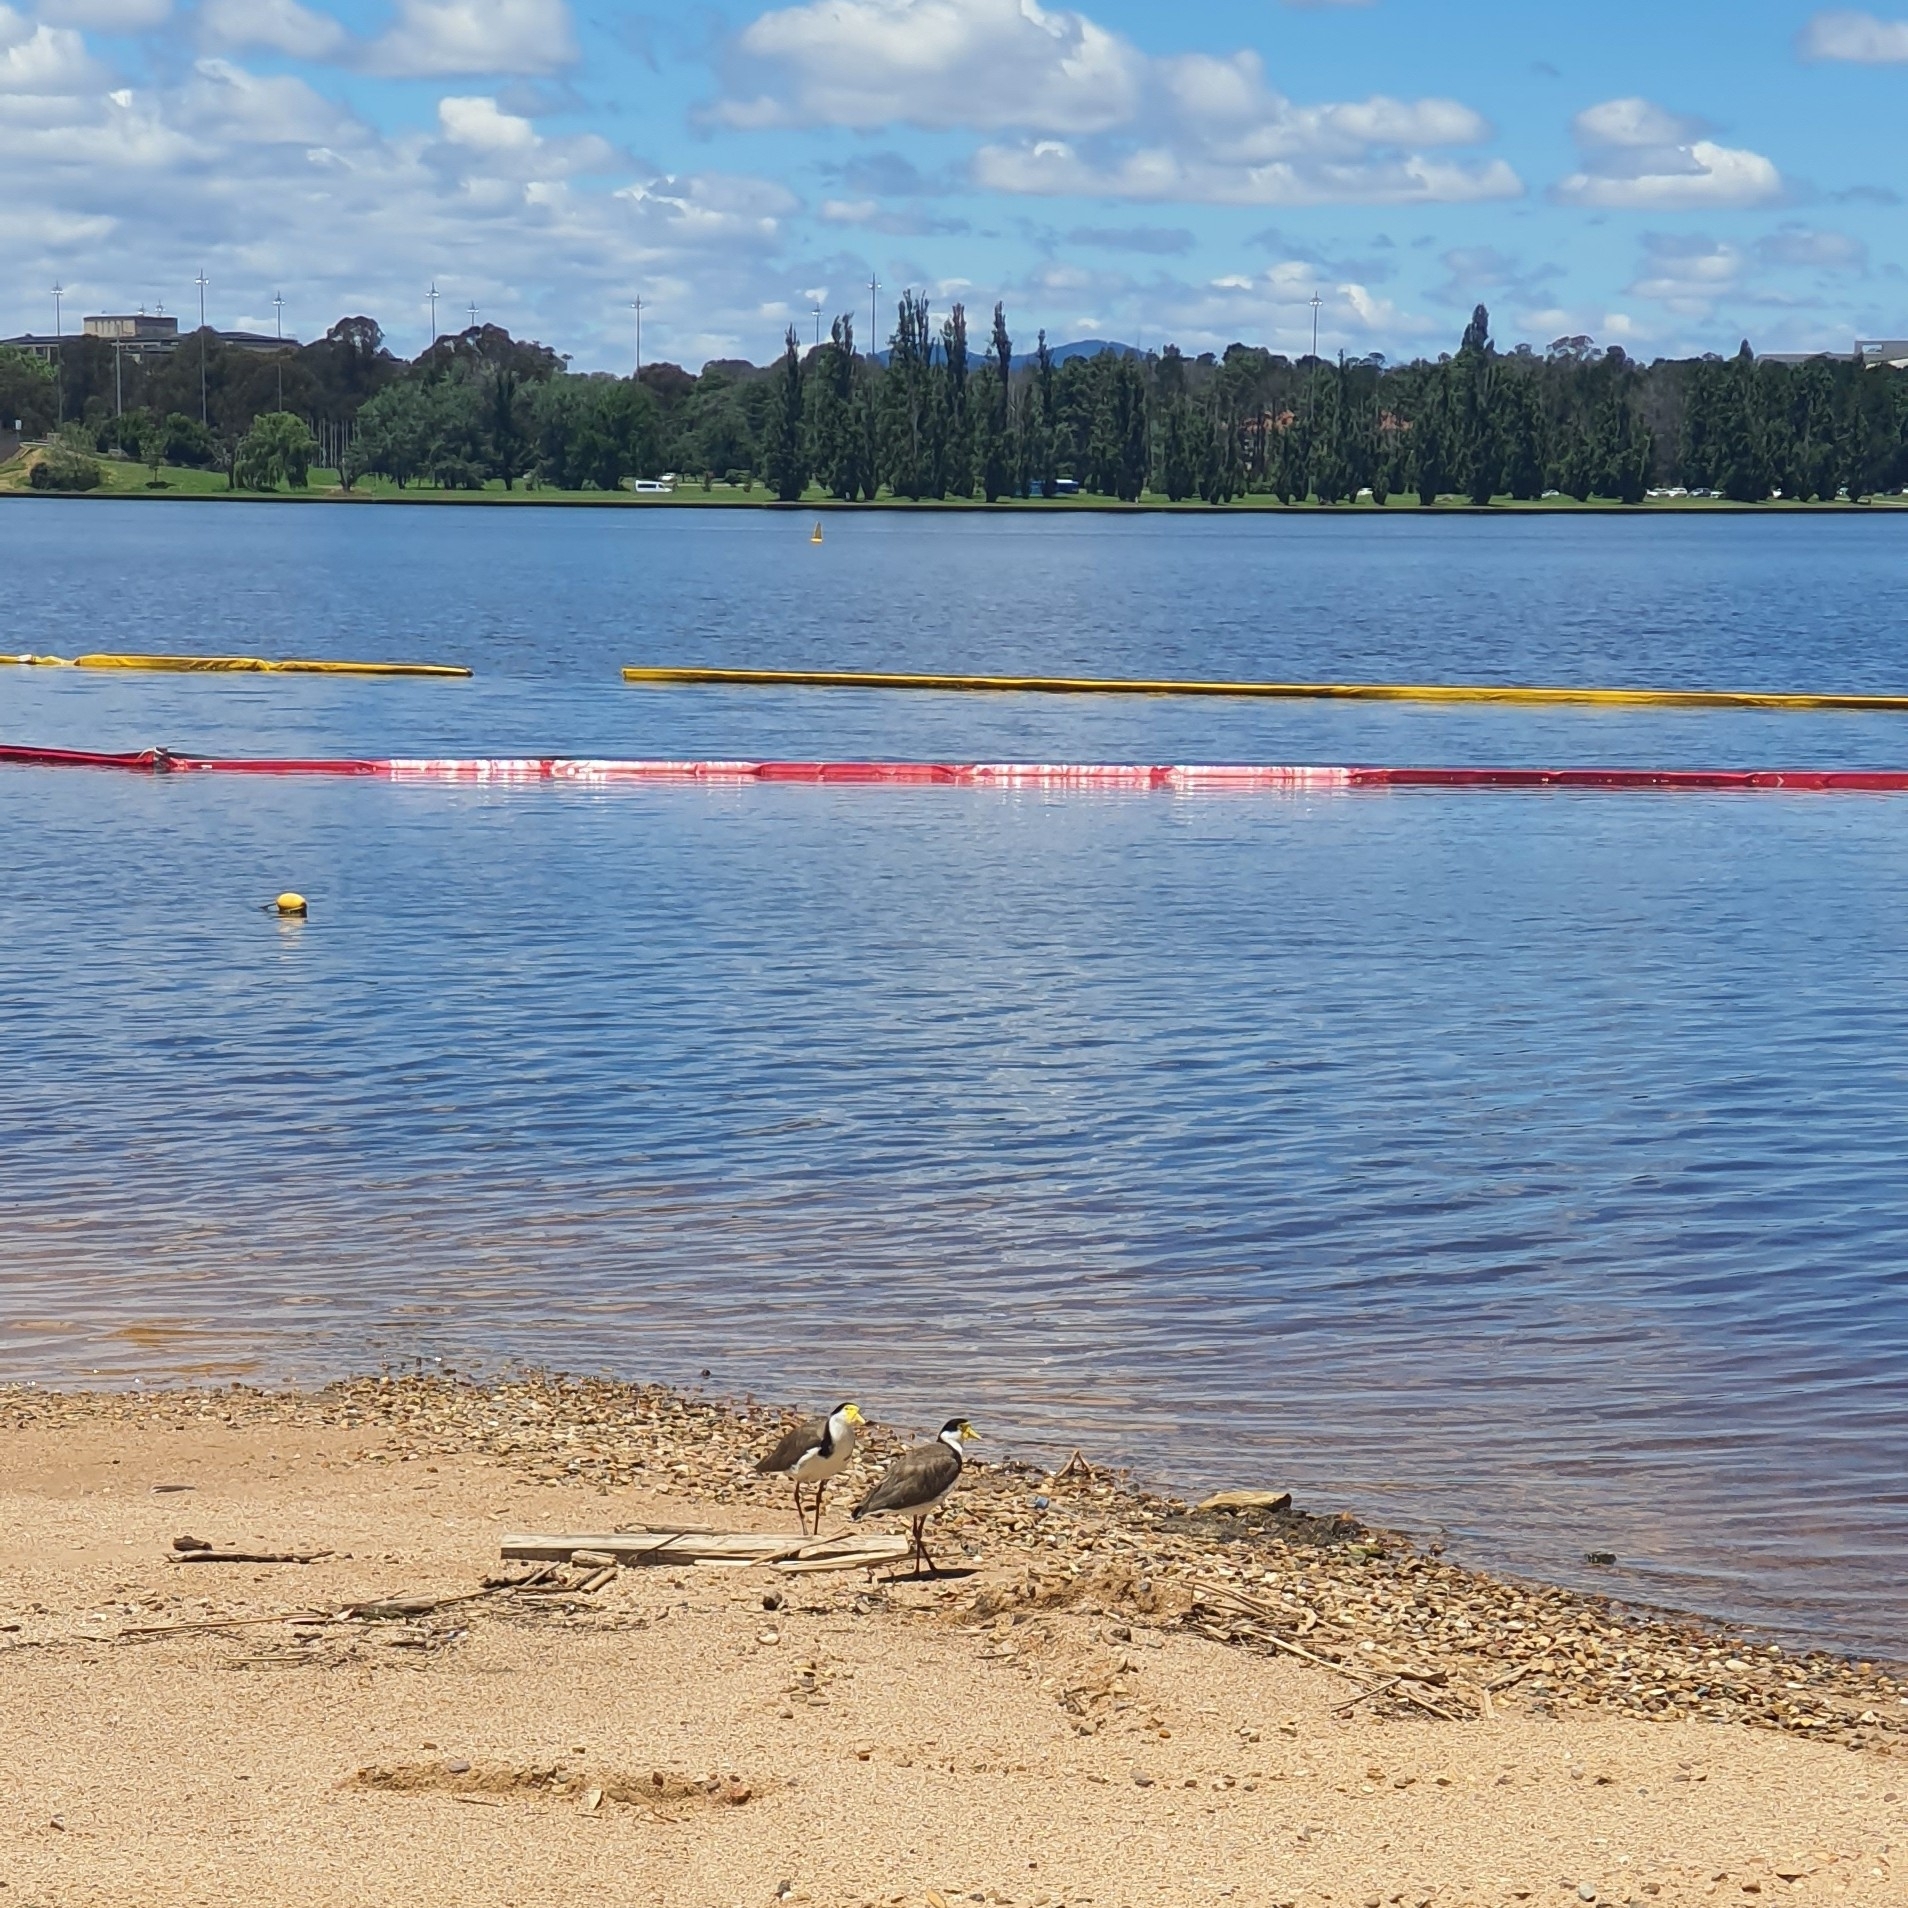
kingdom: Animalia
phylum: Chordata
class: Aves
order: Charadriiformes
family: Charadriidae
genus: Vanellus
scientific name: Vanellus miles
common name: Masked lapwing
